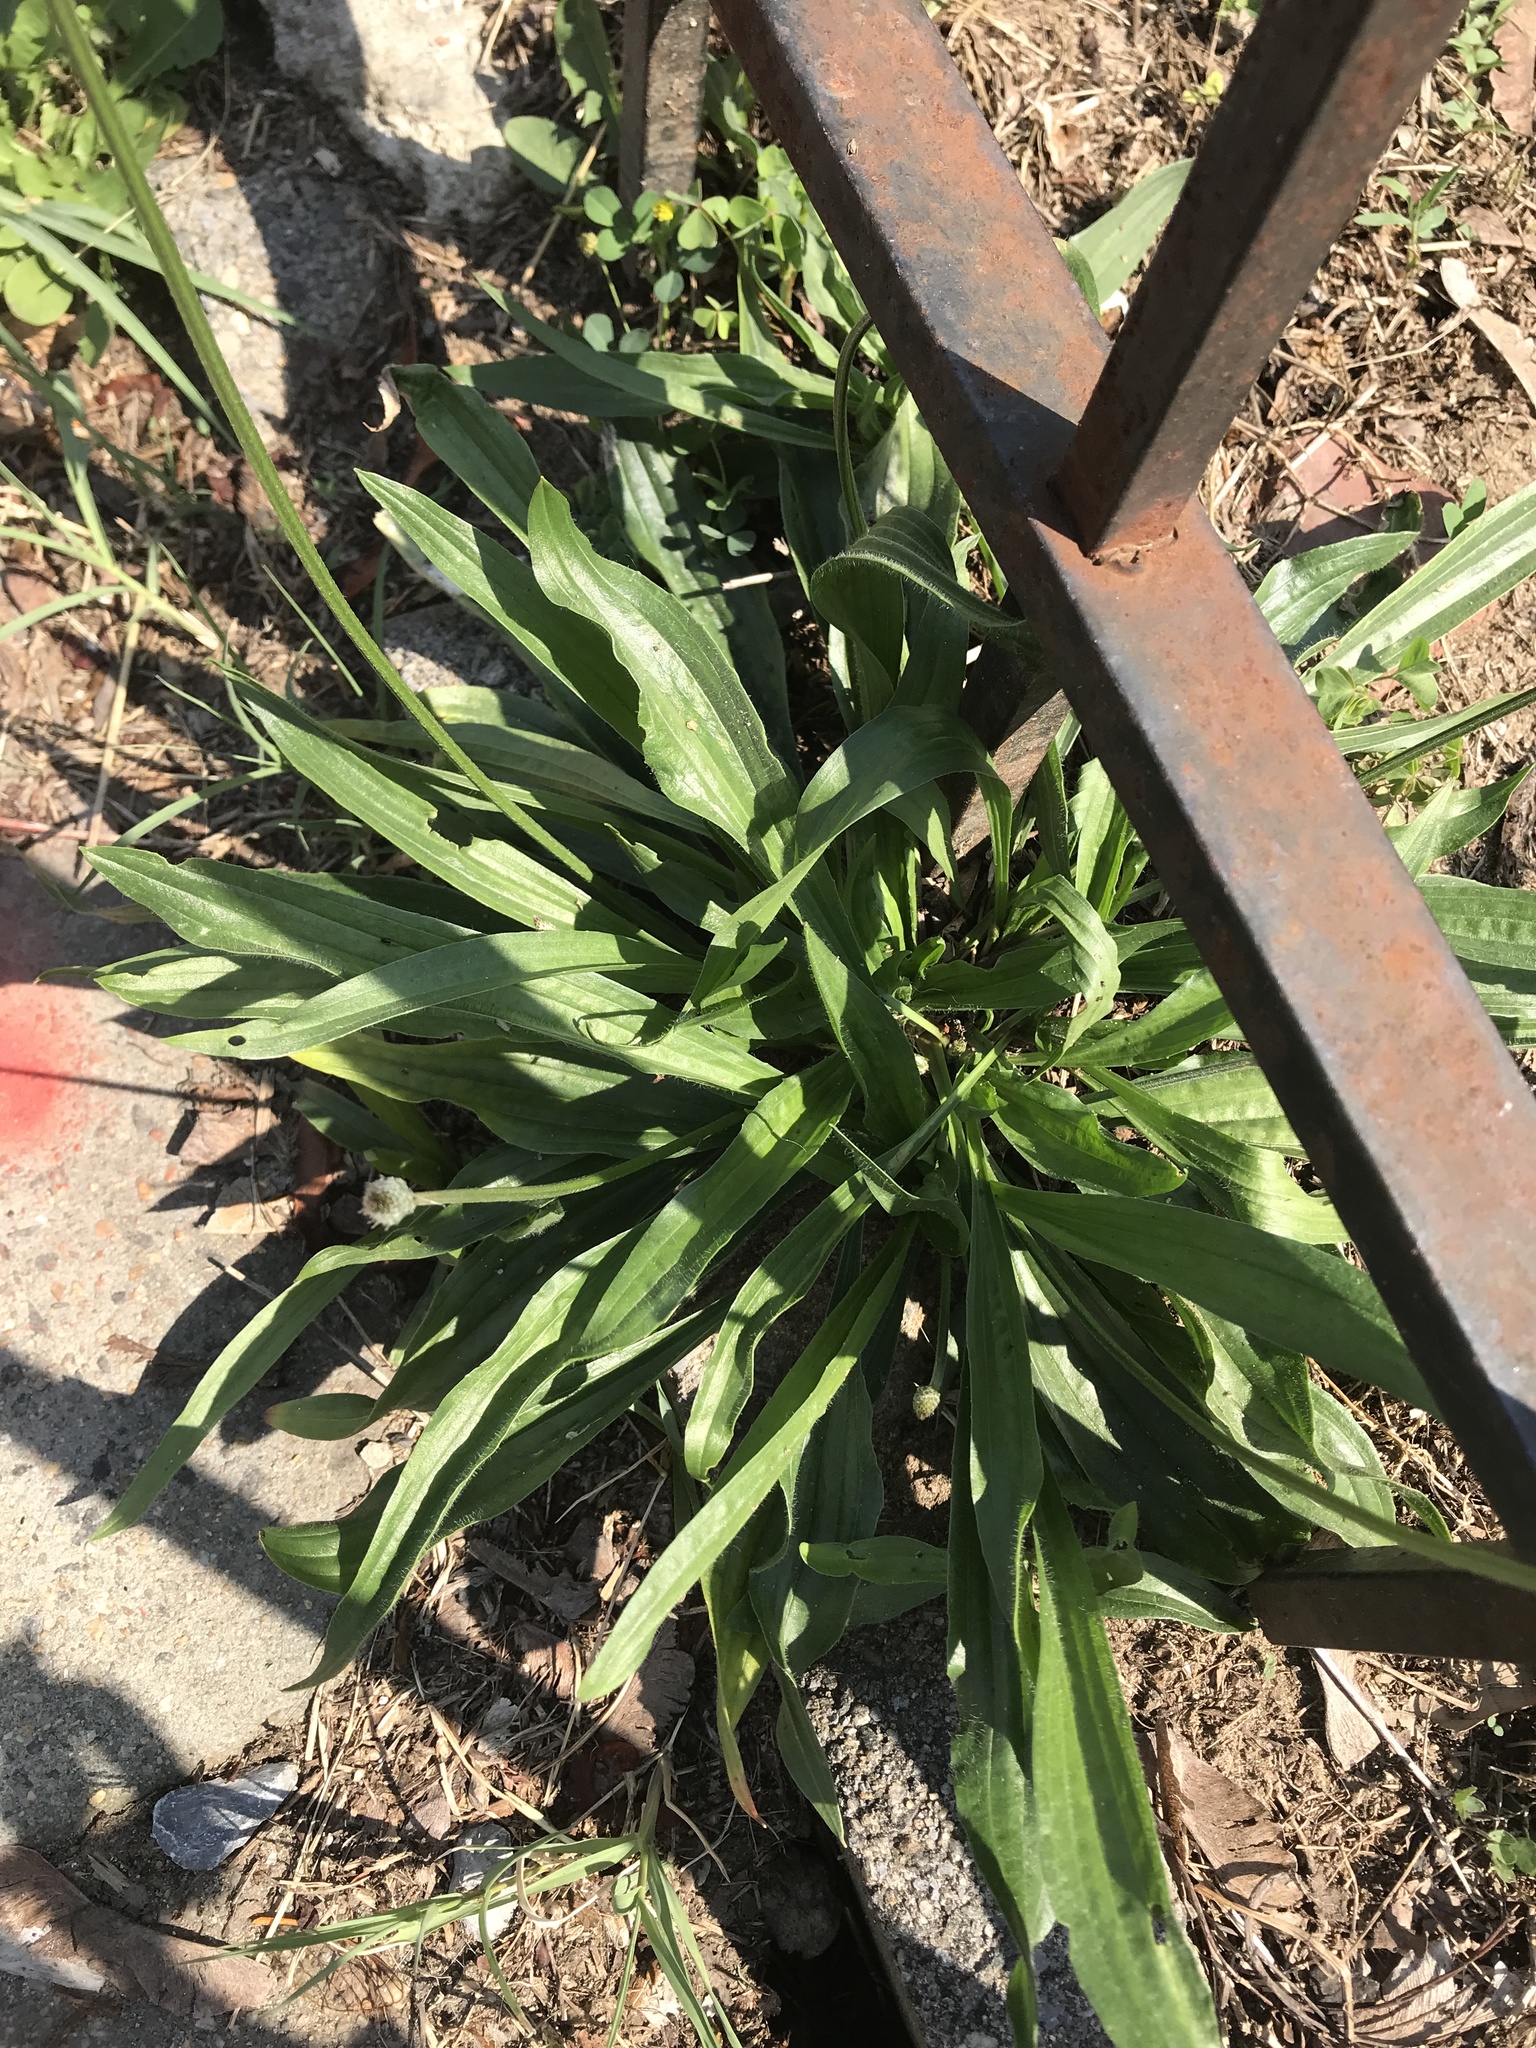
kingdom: Plantae
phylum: Tracheophyta
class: Magnoliopsida
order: Lamiales
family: Plantaginaceae
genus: Plantago
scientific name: Plantago lanceolata
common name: Ribwort plantain
